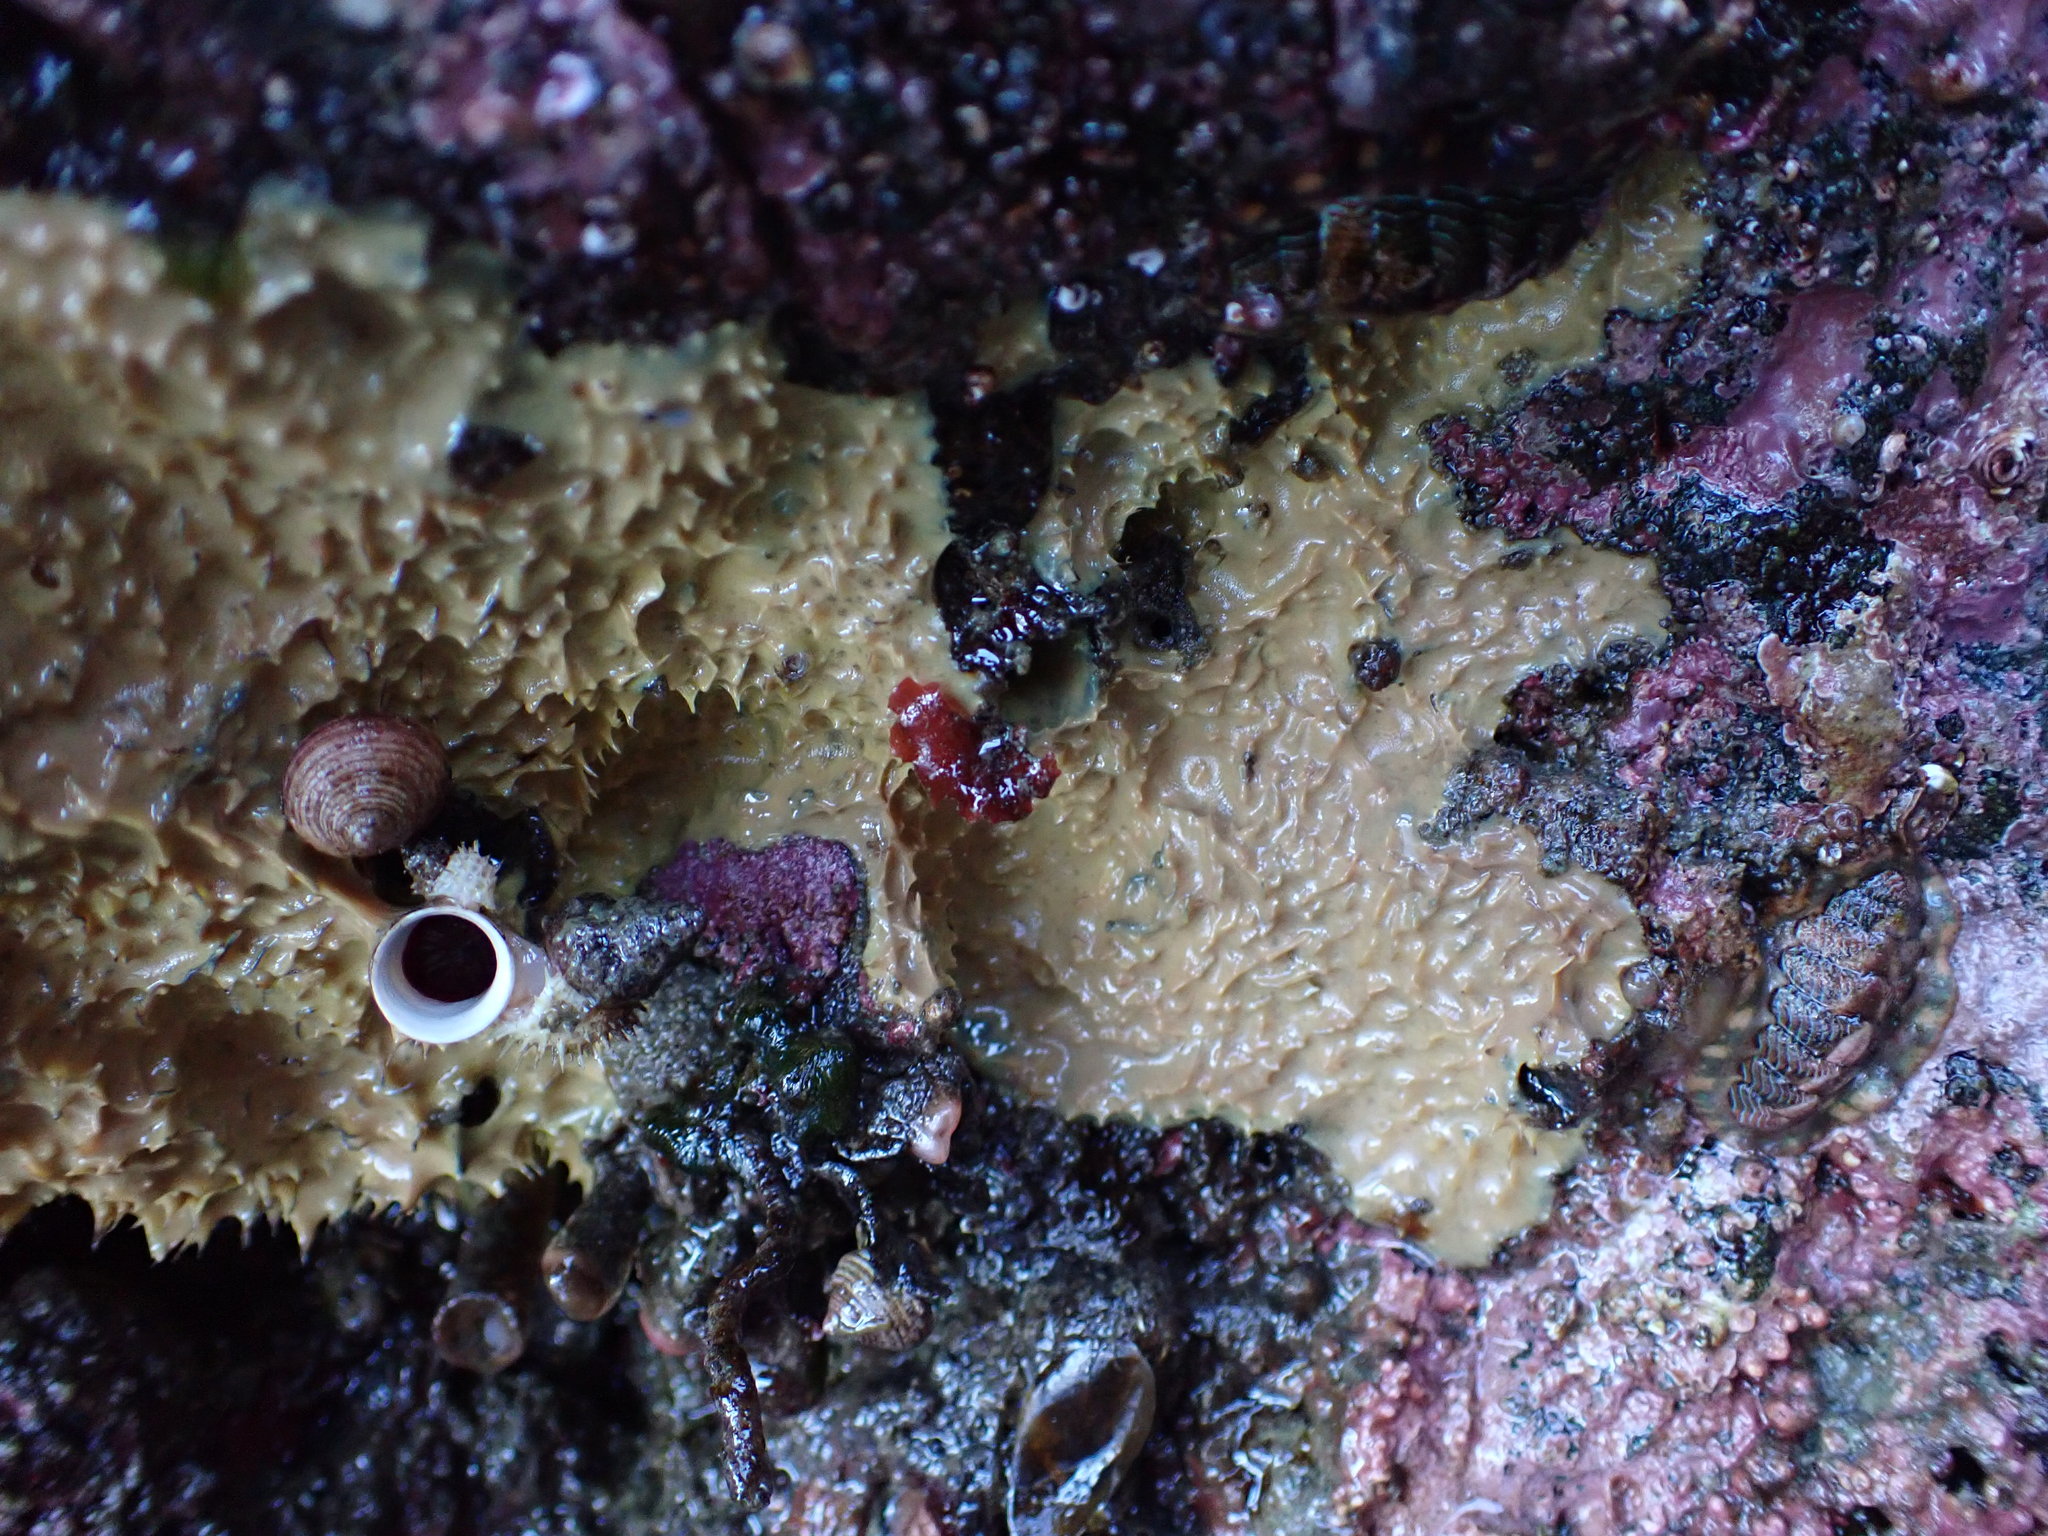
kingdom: Animalia
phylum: Porifera
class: Demospongiae
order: Dendroceratida
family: Darwinellidae
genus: Aplysilla
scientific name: Aplysilla glacialis
